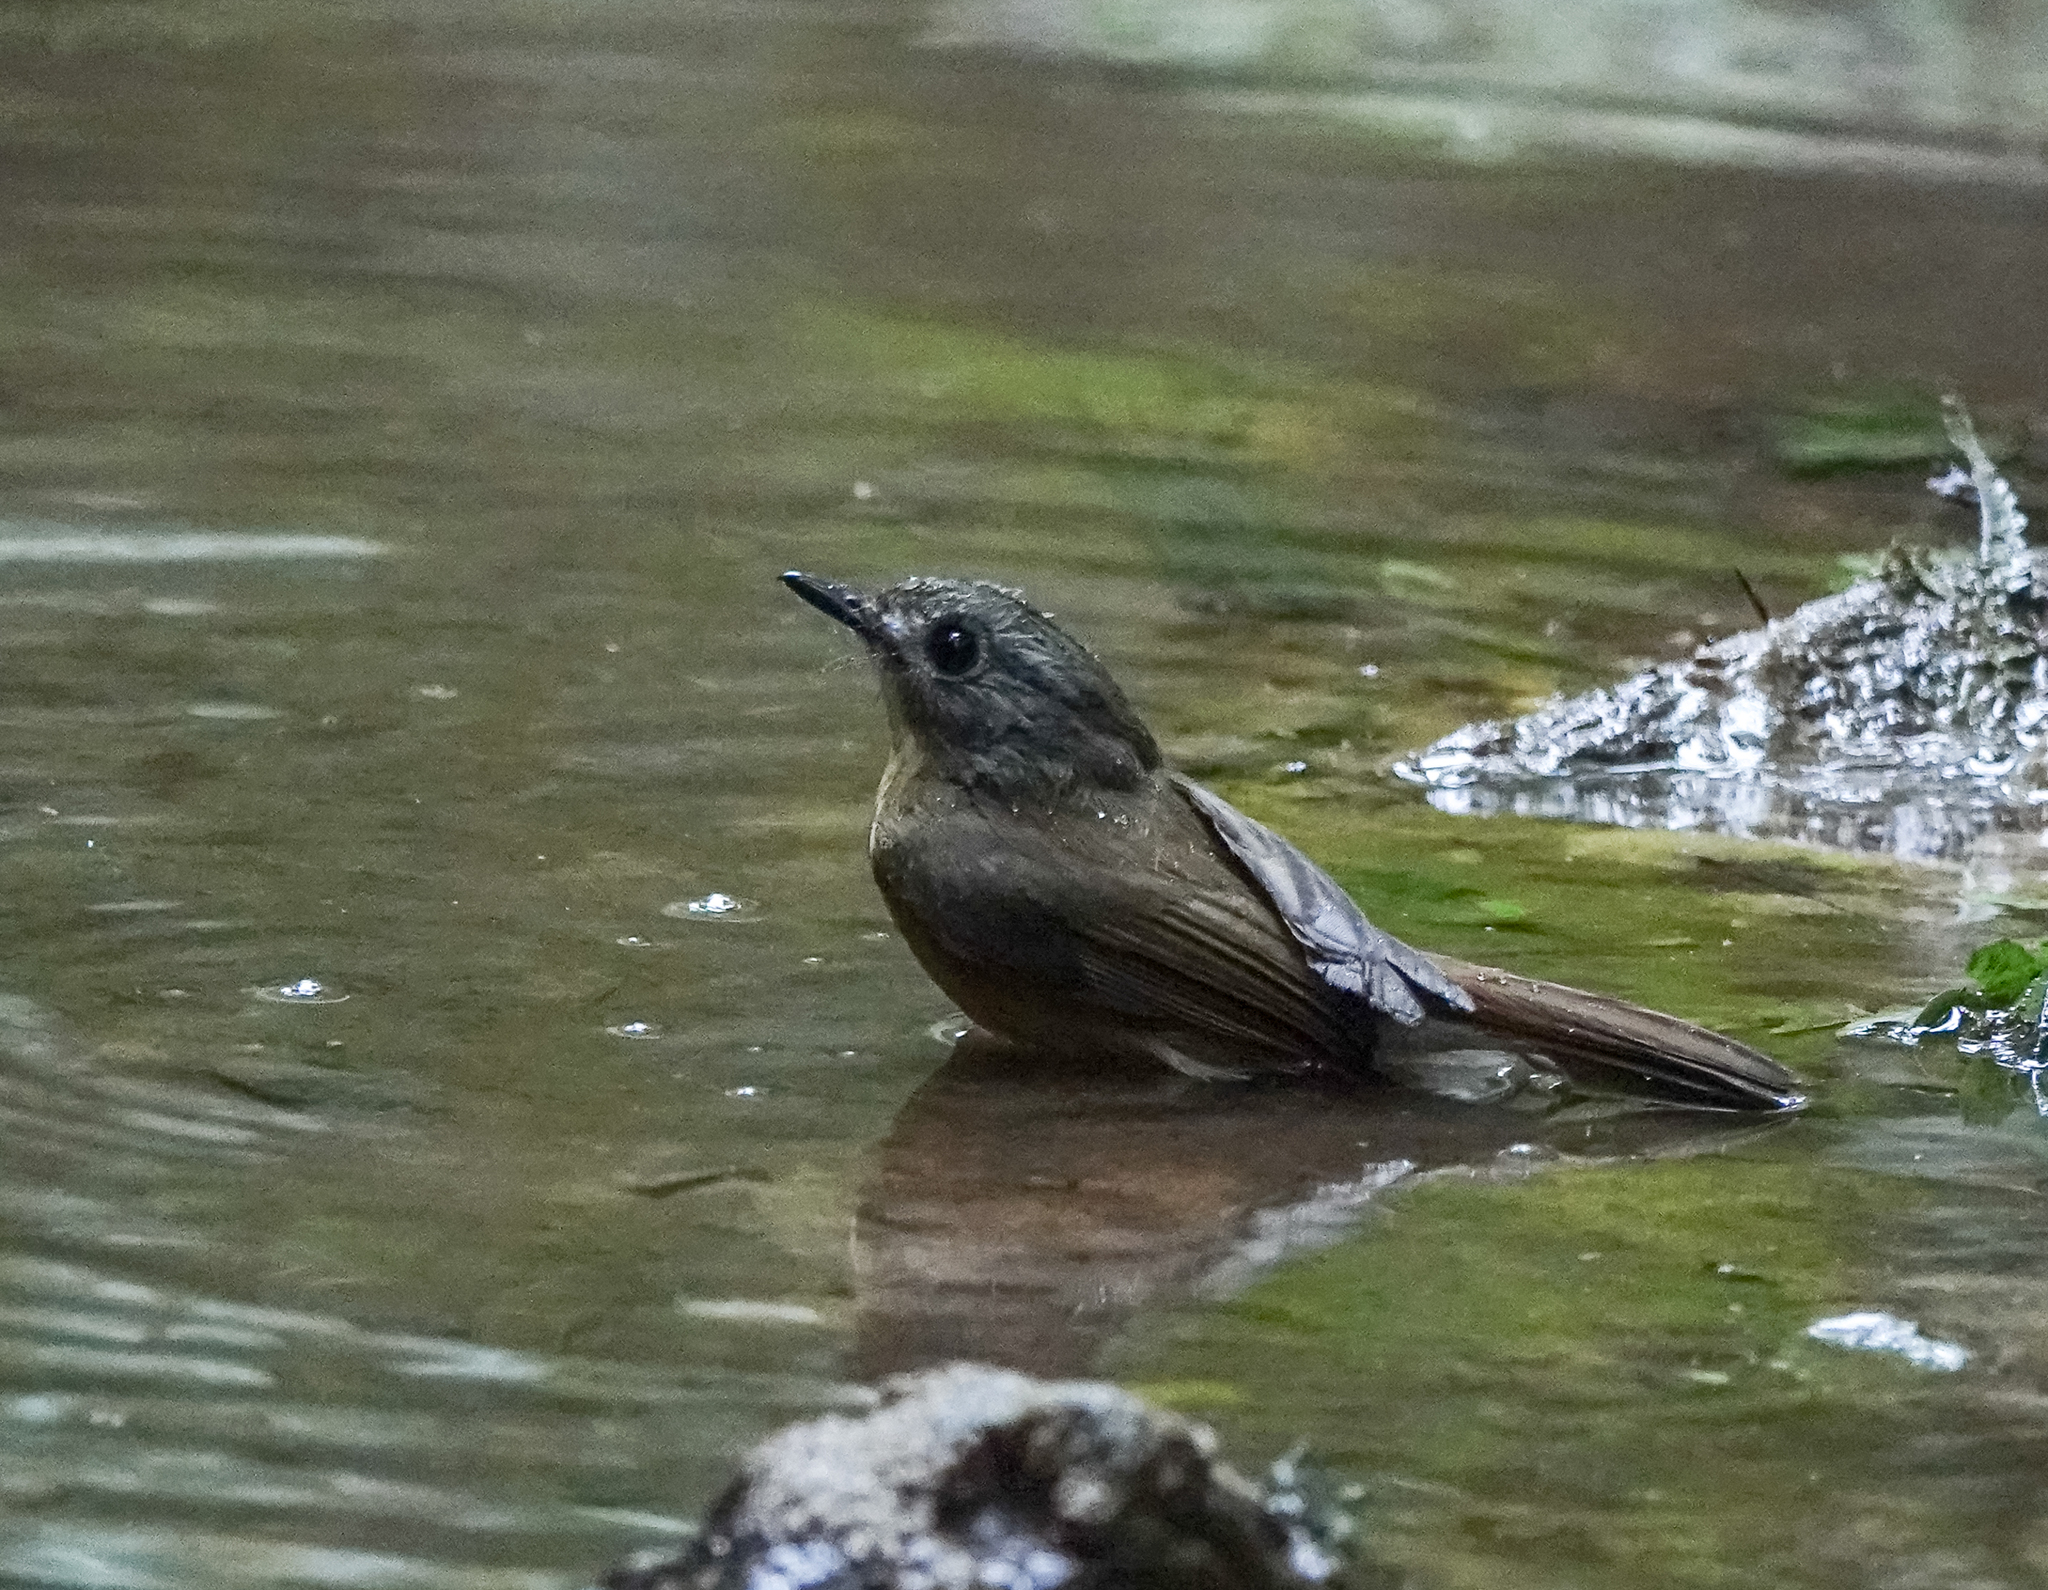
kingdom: Animalia
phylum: Chordata
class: Aves
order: Passeriformes
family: Muscicapidae
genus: Cyornis
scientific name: Cyornis poliogenys
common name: Pale-chinned blue flycatcher
